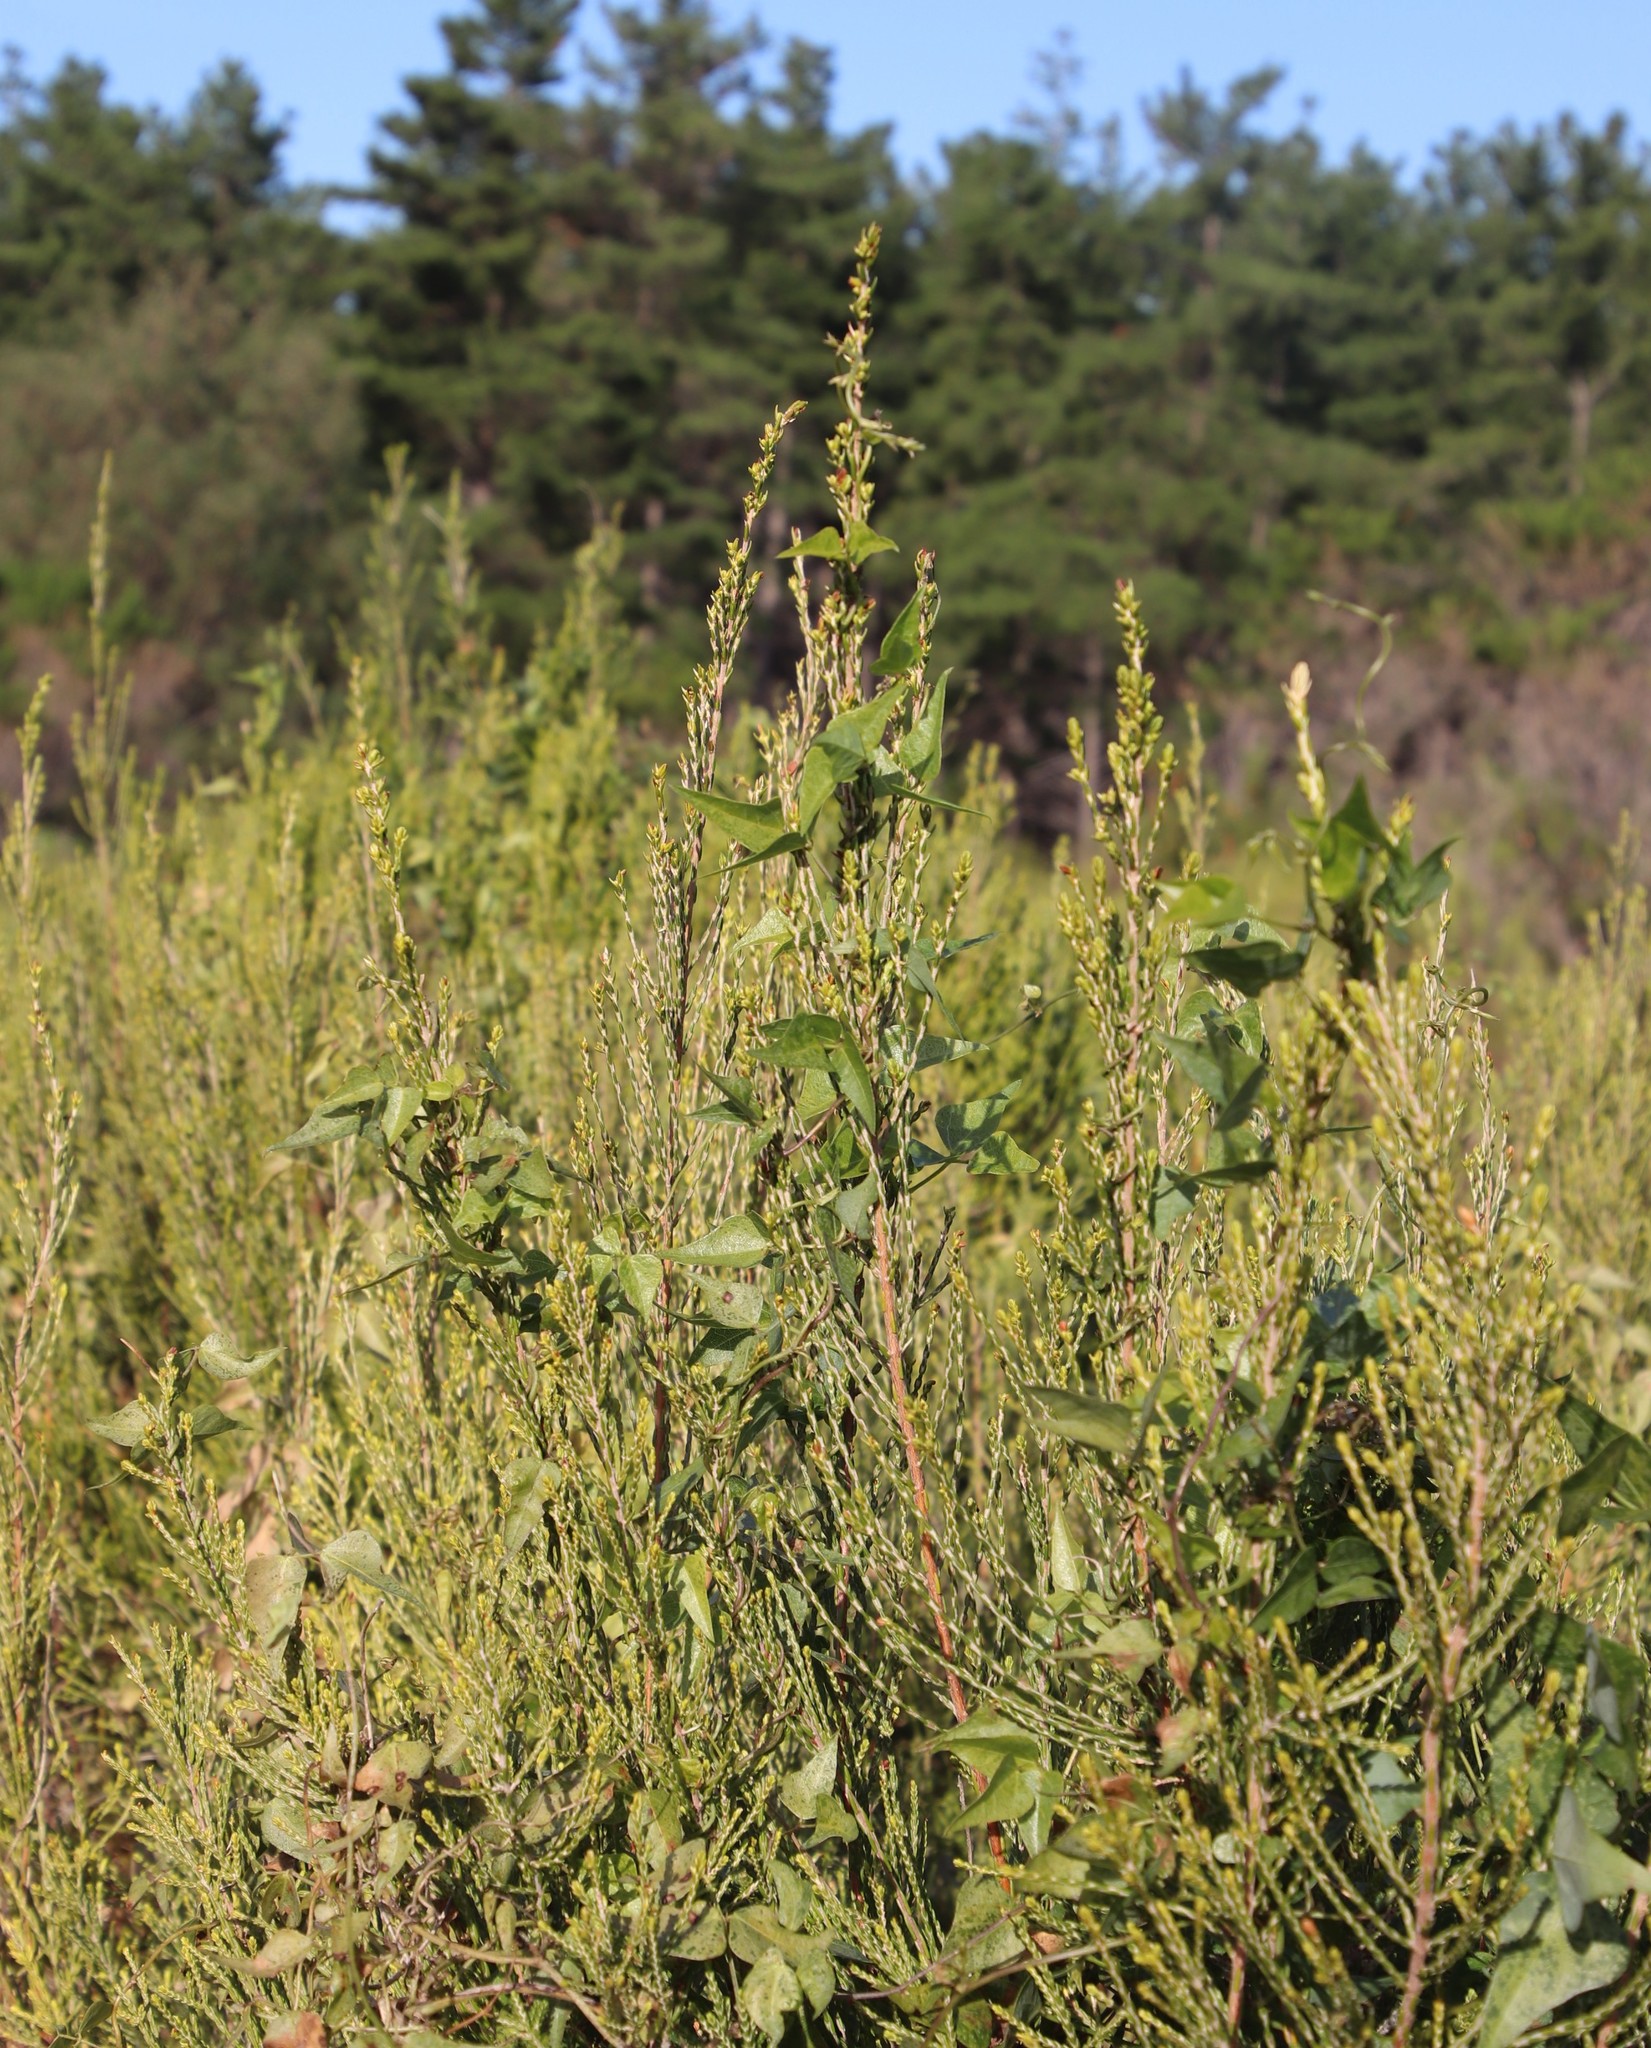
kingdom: Plantae
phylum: Tracheophyta
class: Magnoliopsida
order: Fabales
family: Fabaceae
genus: Dipogon
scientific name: Dipogon lignosus
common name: Okie bean
